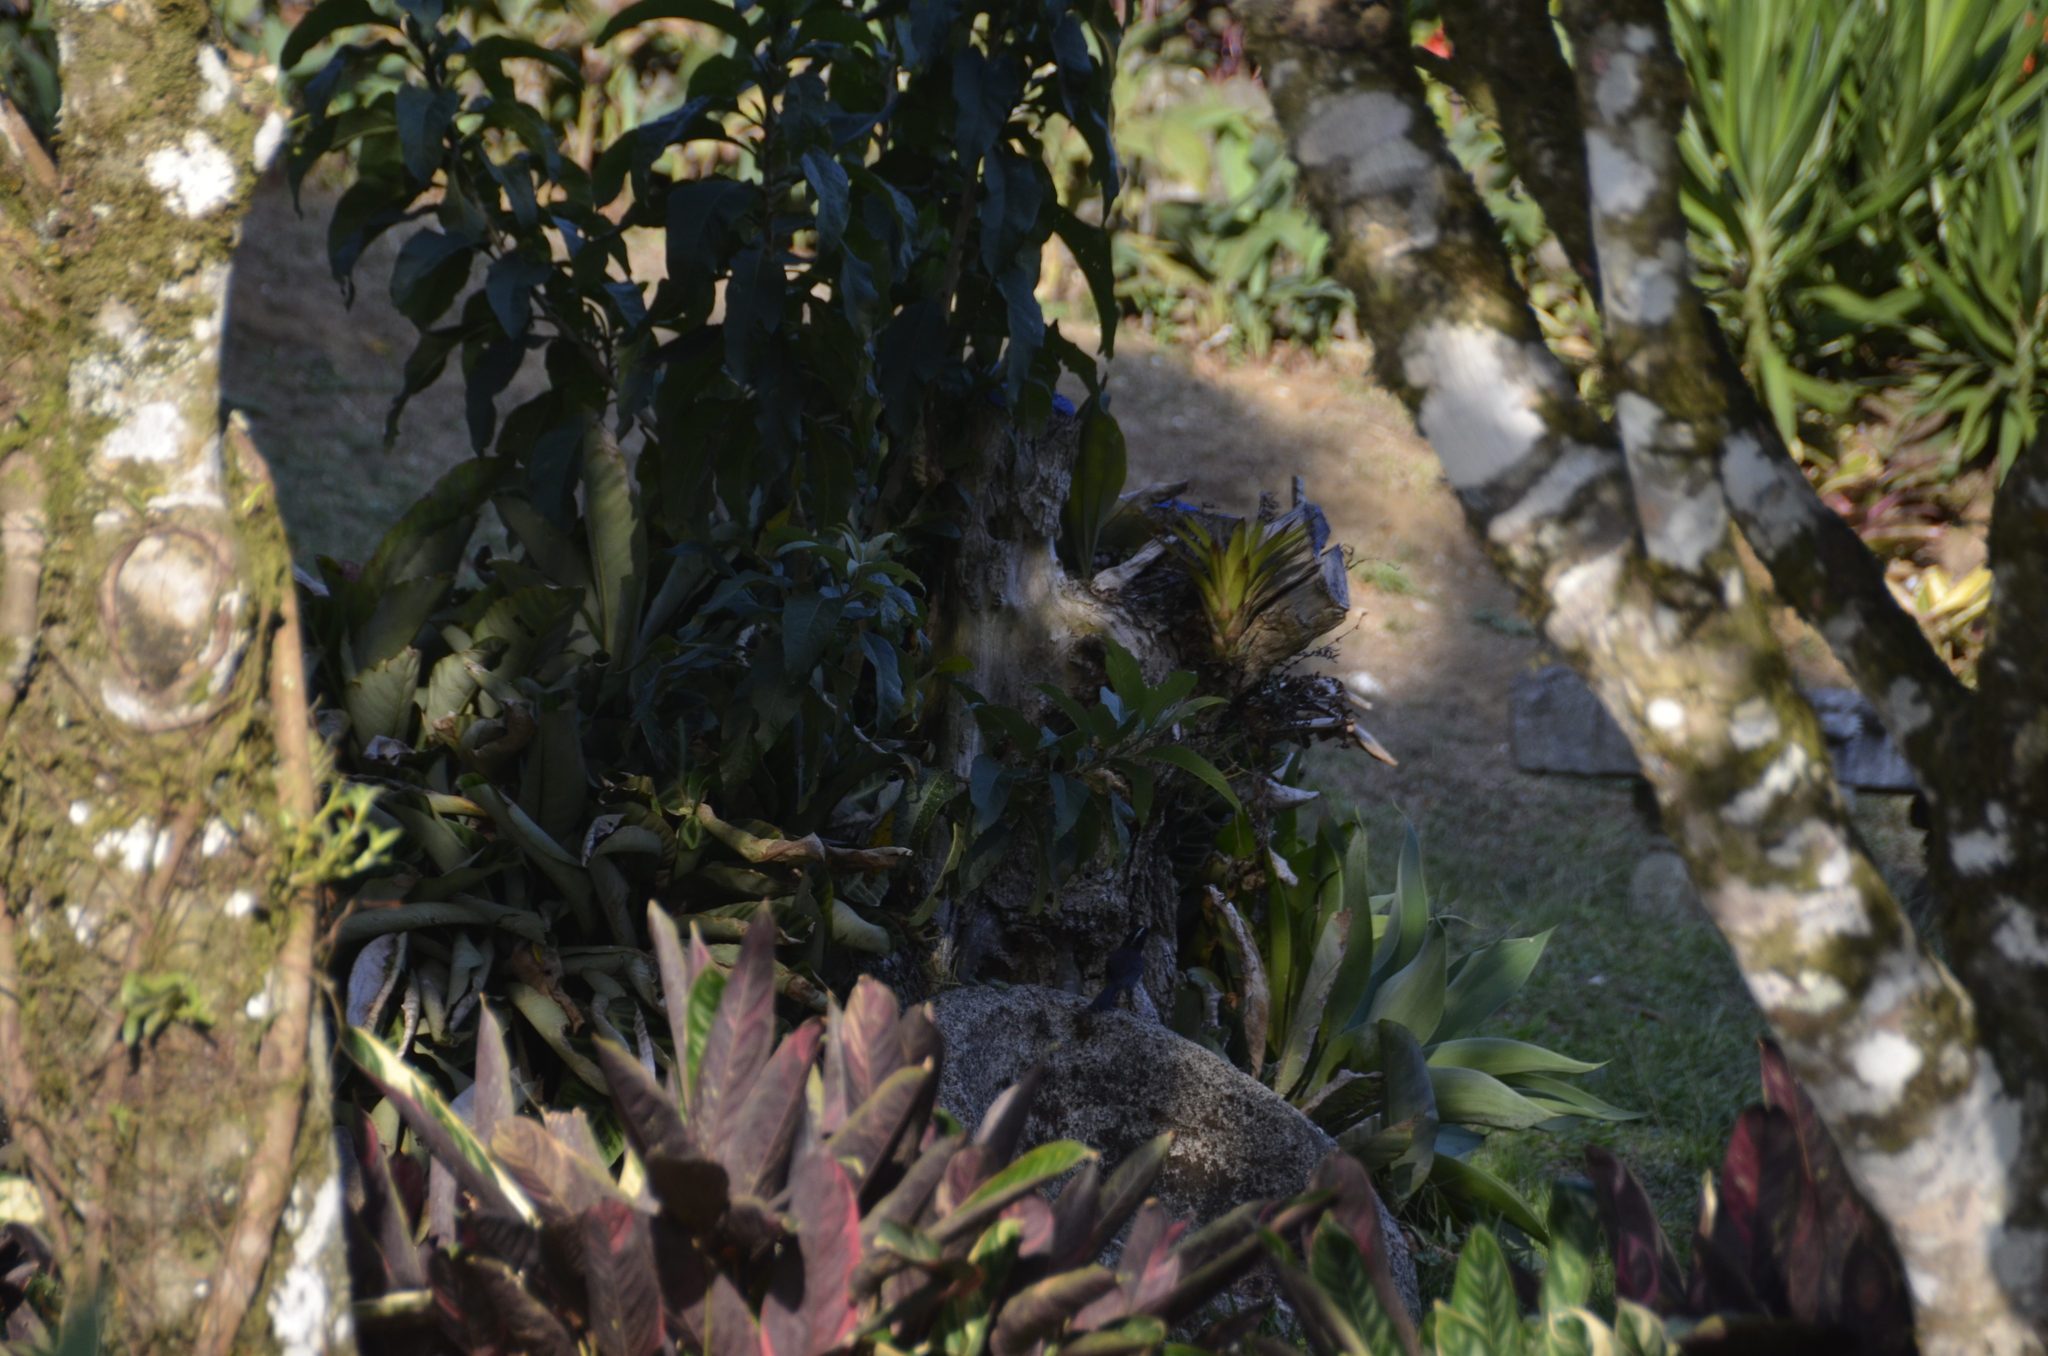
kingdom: Animalia
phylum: Chordata
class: Aves
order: Passeriformes
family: Passerellidae
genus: Atlapetes
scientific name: Atlapetes albinucha
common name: White-naped brush-finch
